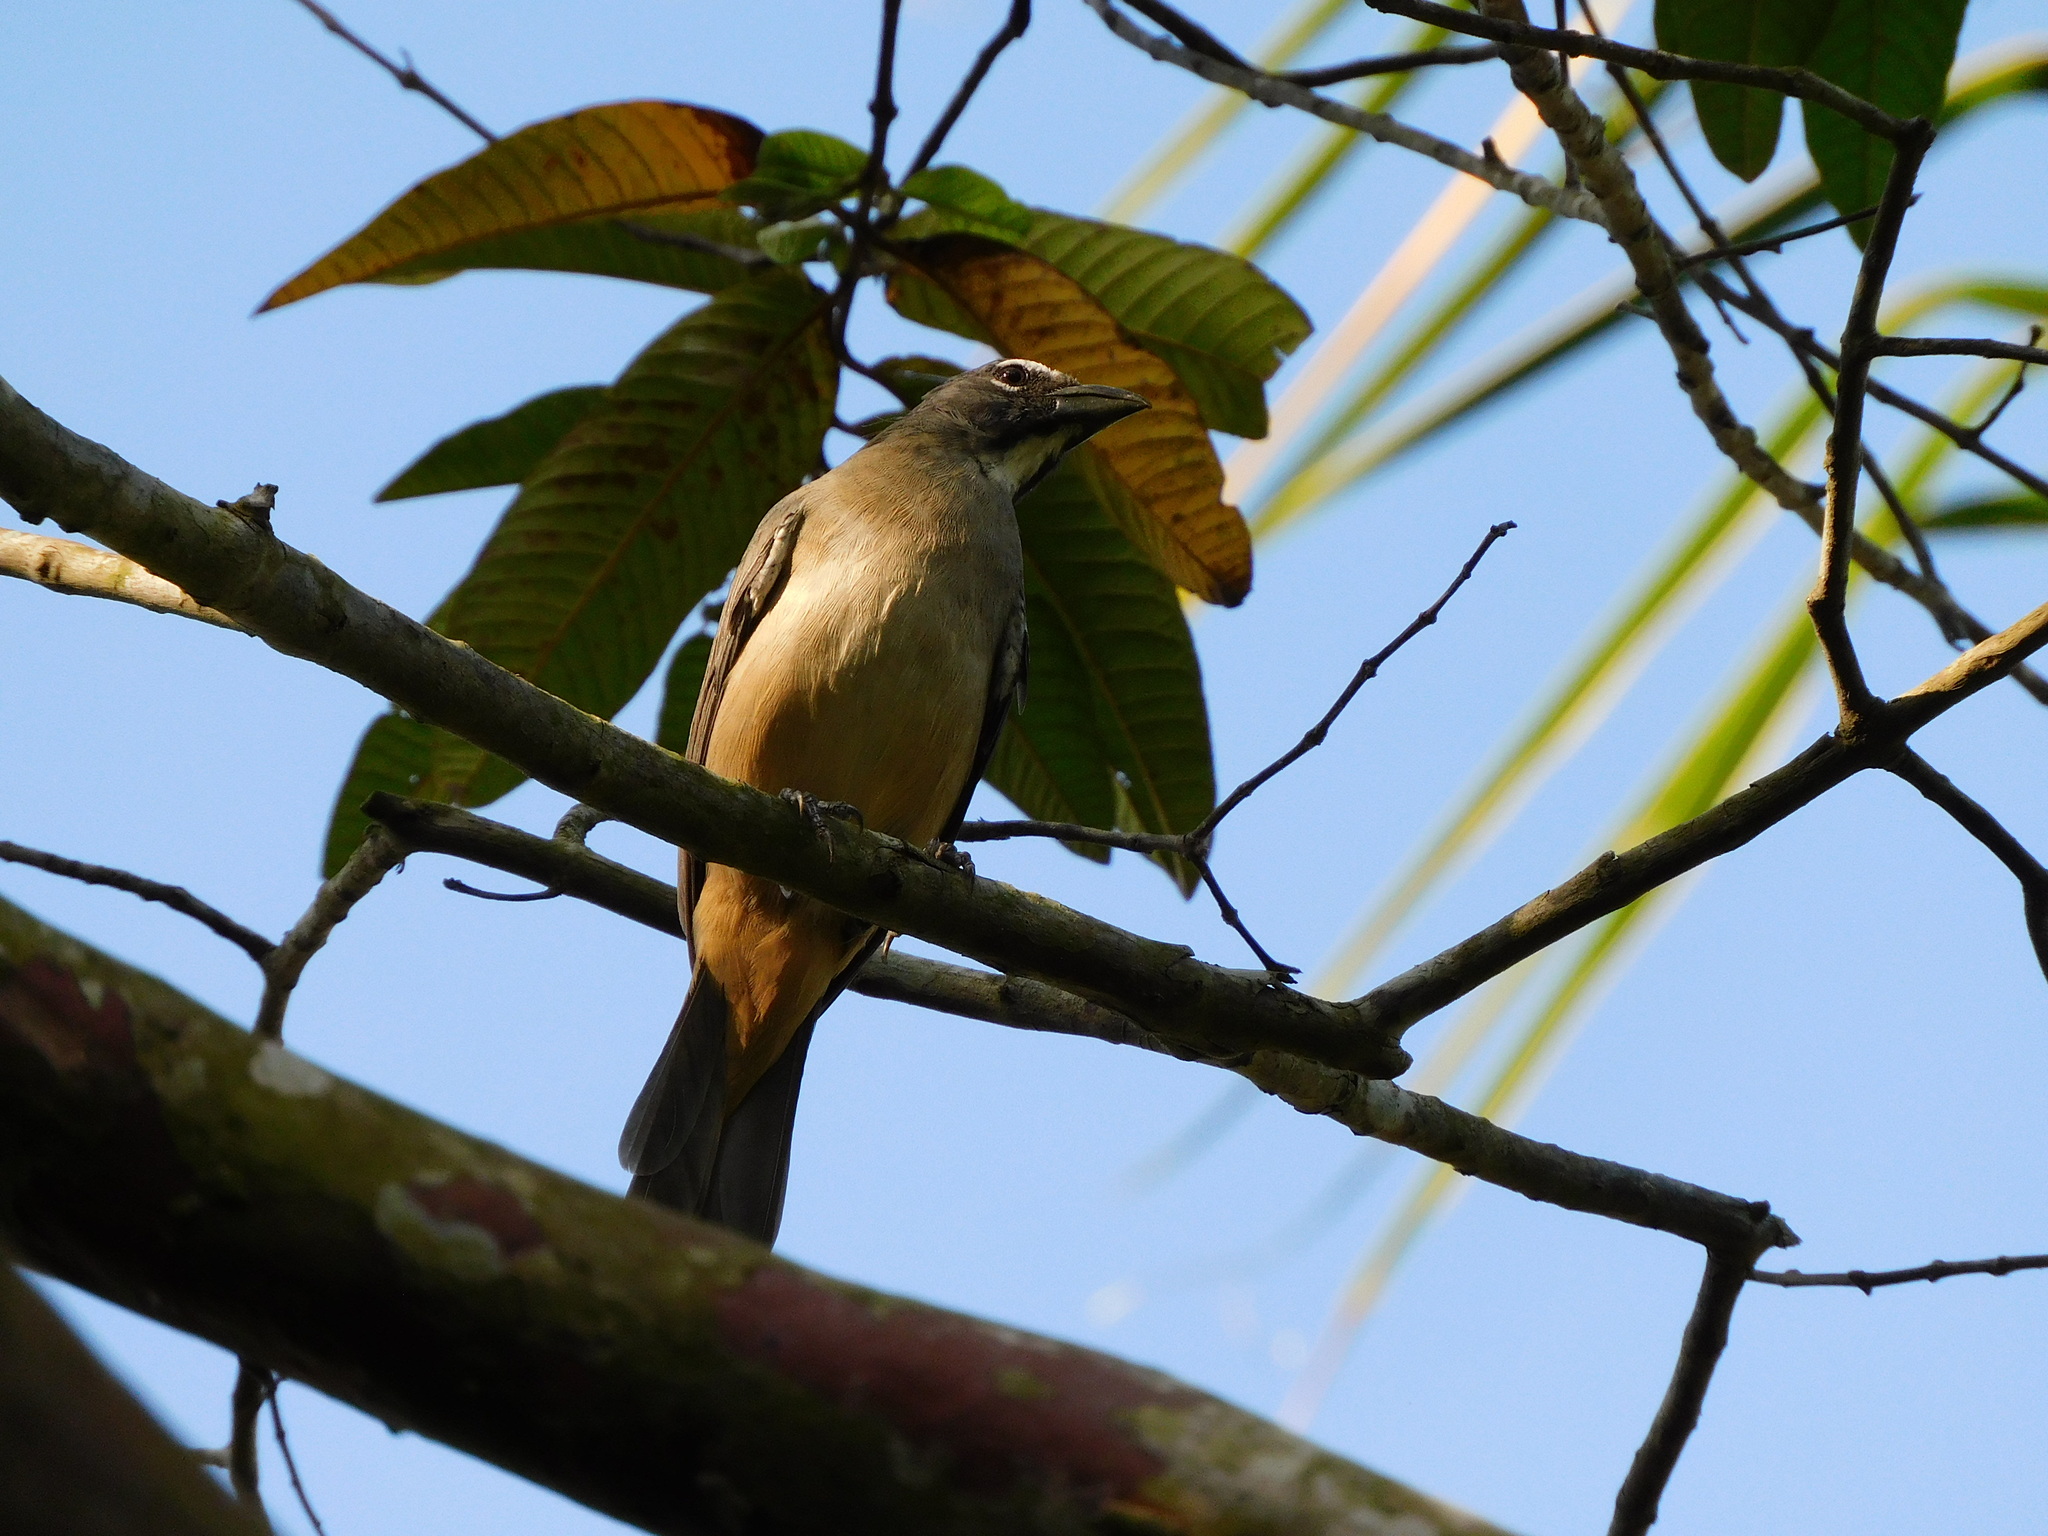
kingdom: Animalia
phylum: Chordata
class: Aves
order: Passeriformes
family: Thraupidae
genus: Saltator
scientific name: Saltator olivascens
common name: Caribbean grey saltator
